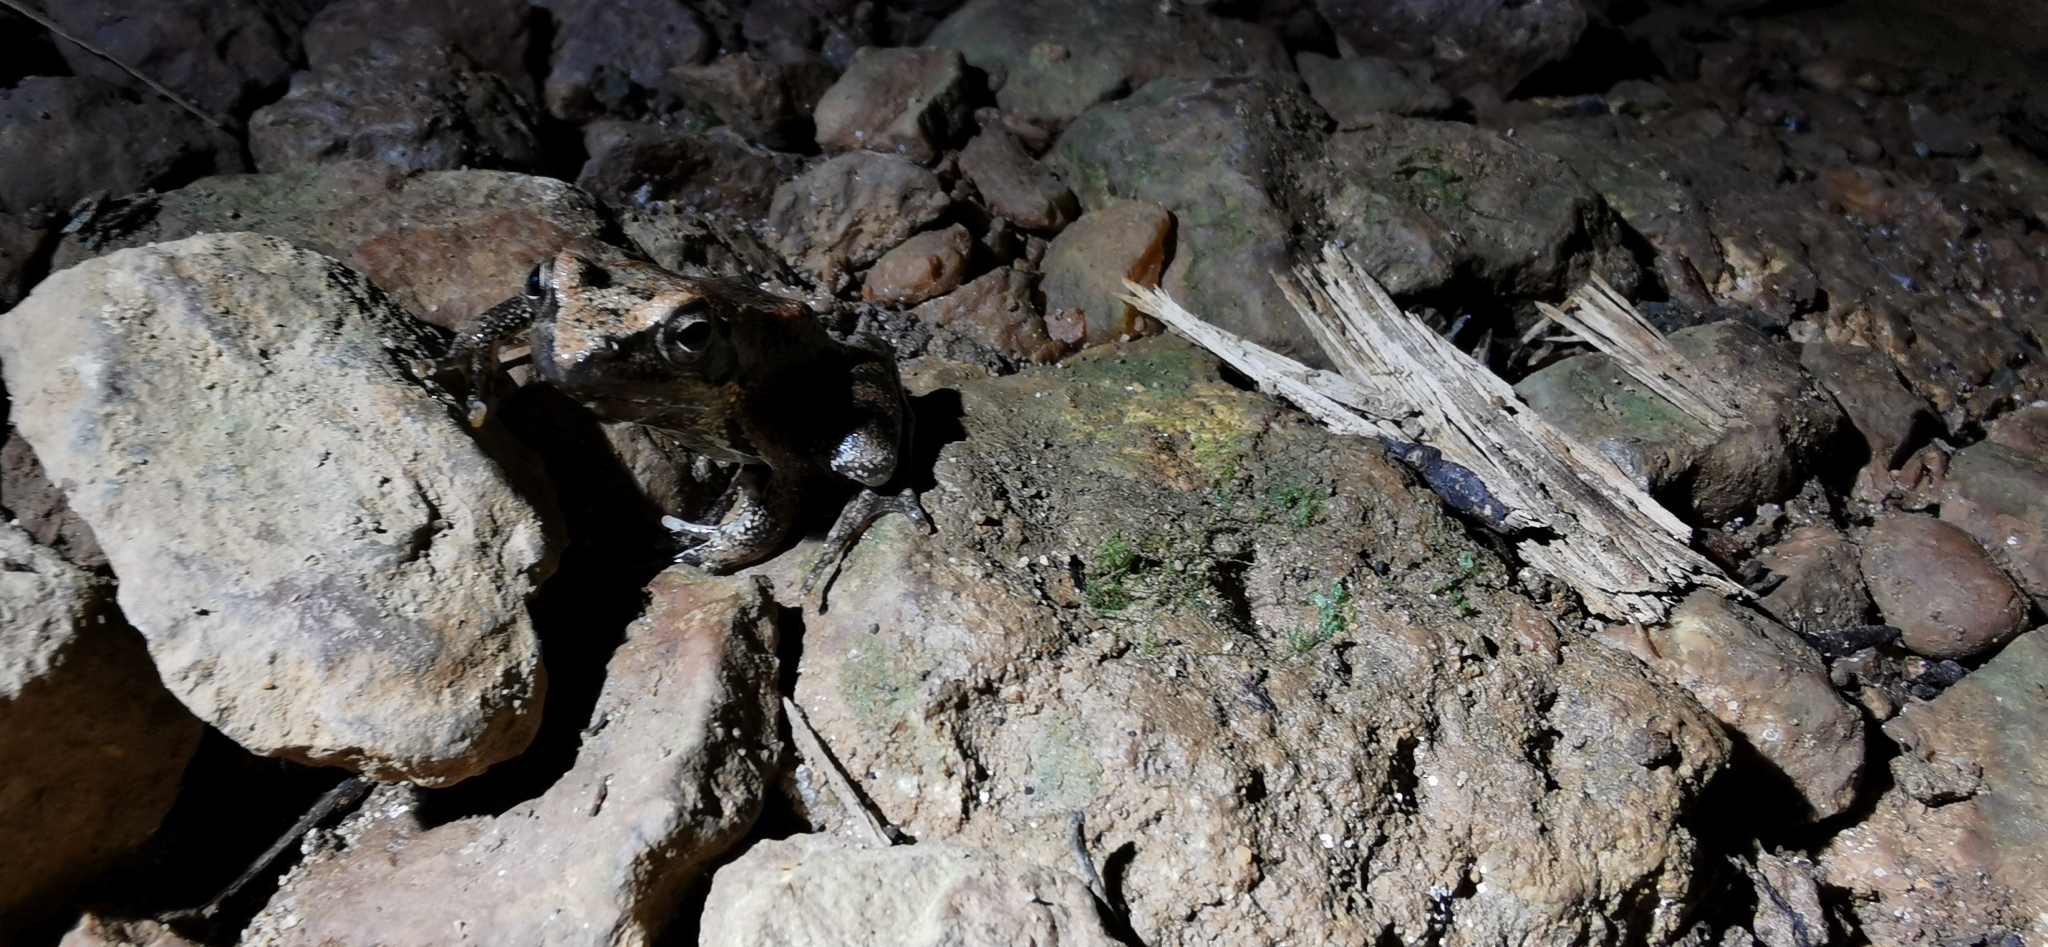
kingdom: Animalia
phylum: Chordata
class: Amphibia
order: Anura
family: Ranidae
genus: Rana
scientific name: Rana italica
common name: Italian stream frog
